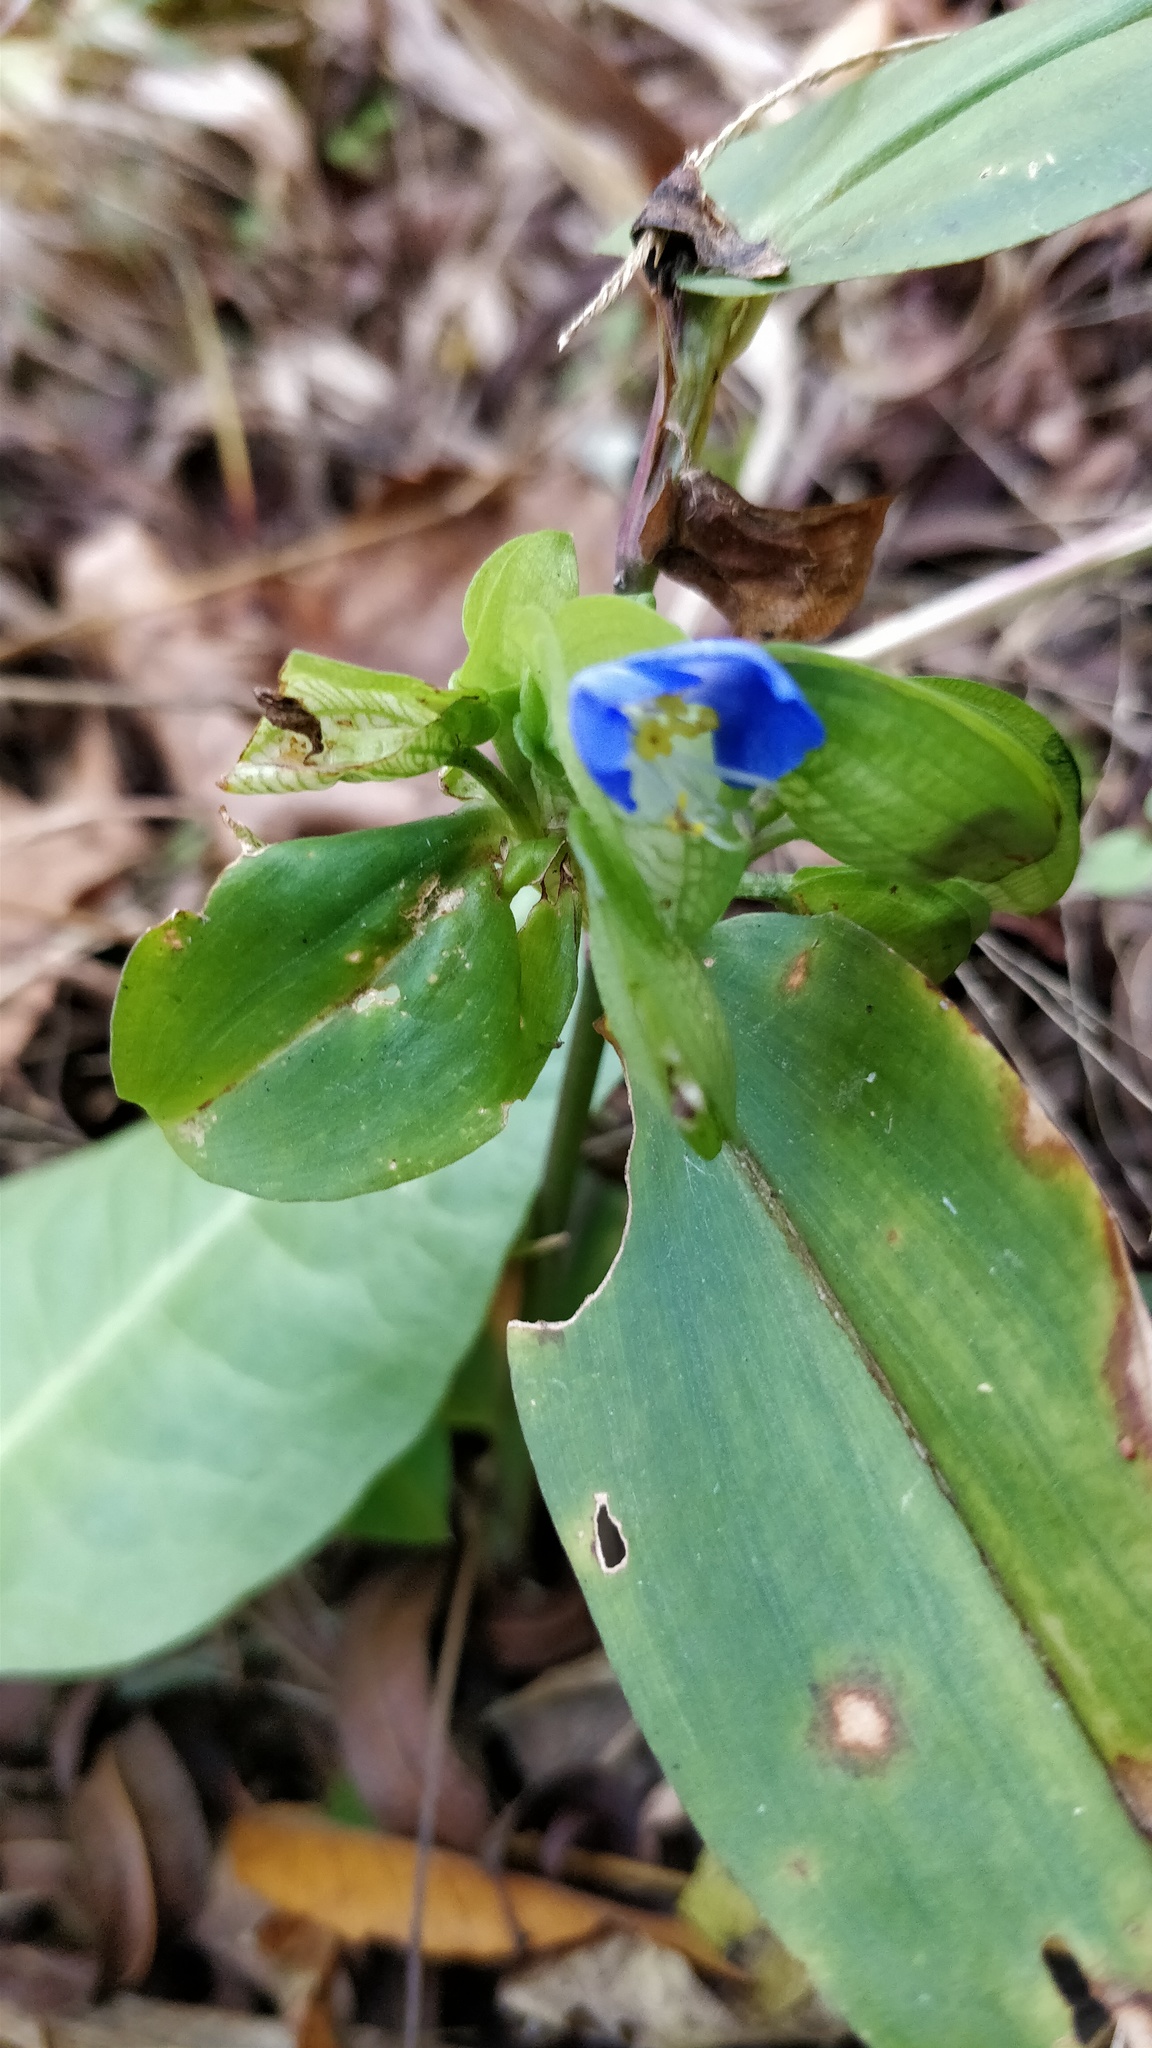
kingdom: Plantae
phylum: Tracheophyta
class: Liliopsida
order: Commelinales
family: Commelinaceae
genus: Commelina
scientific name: Commelina communis
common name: Asiatic dayflower
